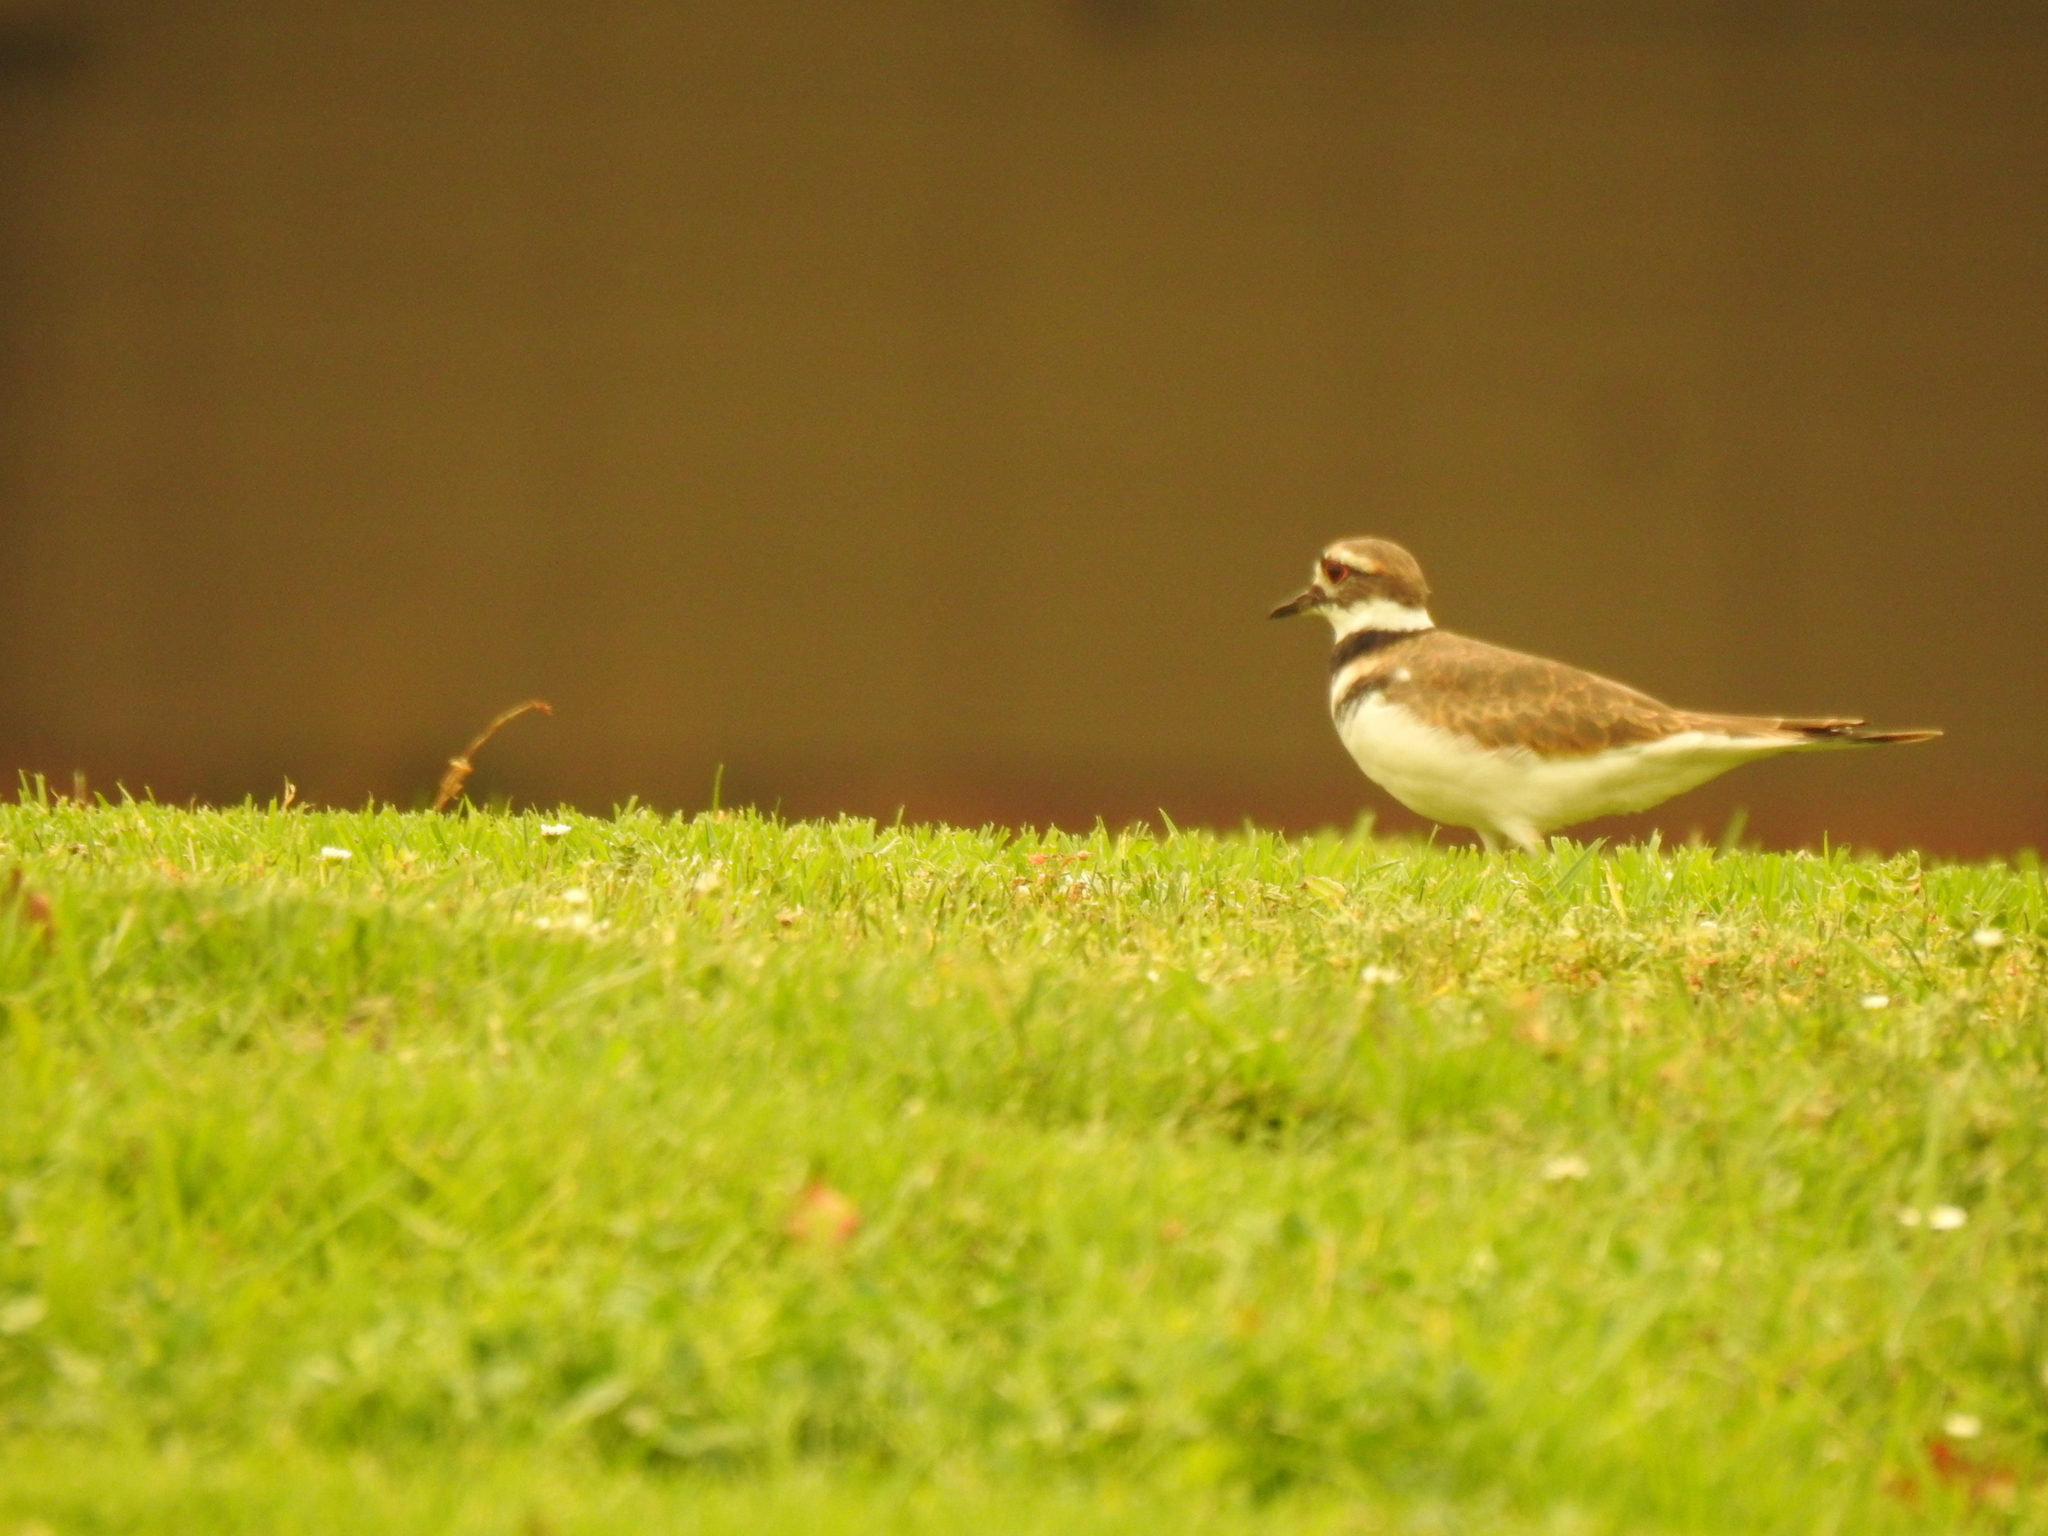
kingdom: Animalia
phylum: Chordata
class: Aves
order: Charadriiformes
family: Charadriidae
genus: Charadrius
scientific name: Charadrius vociferus
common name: Killdeer
